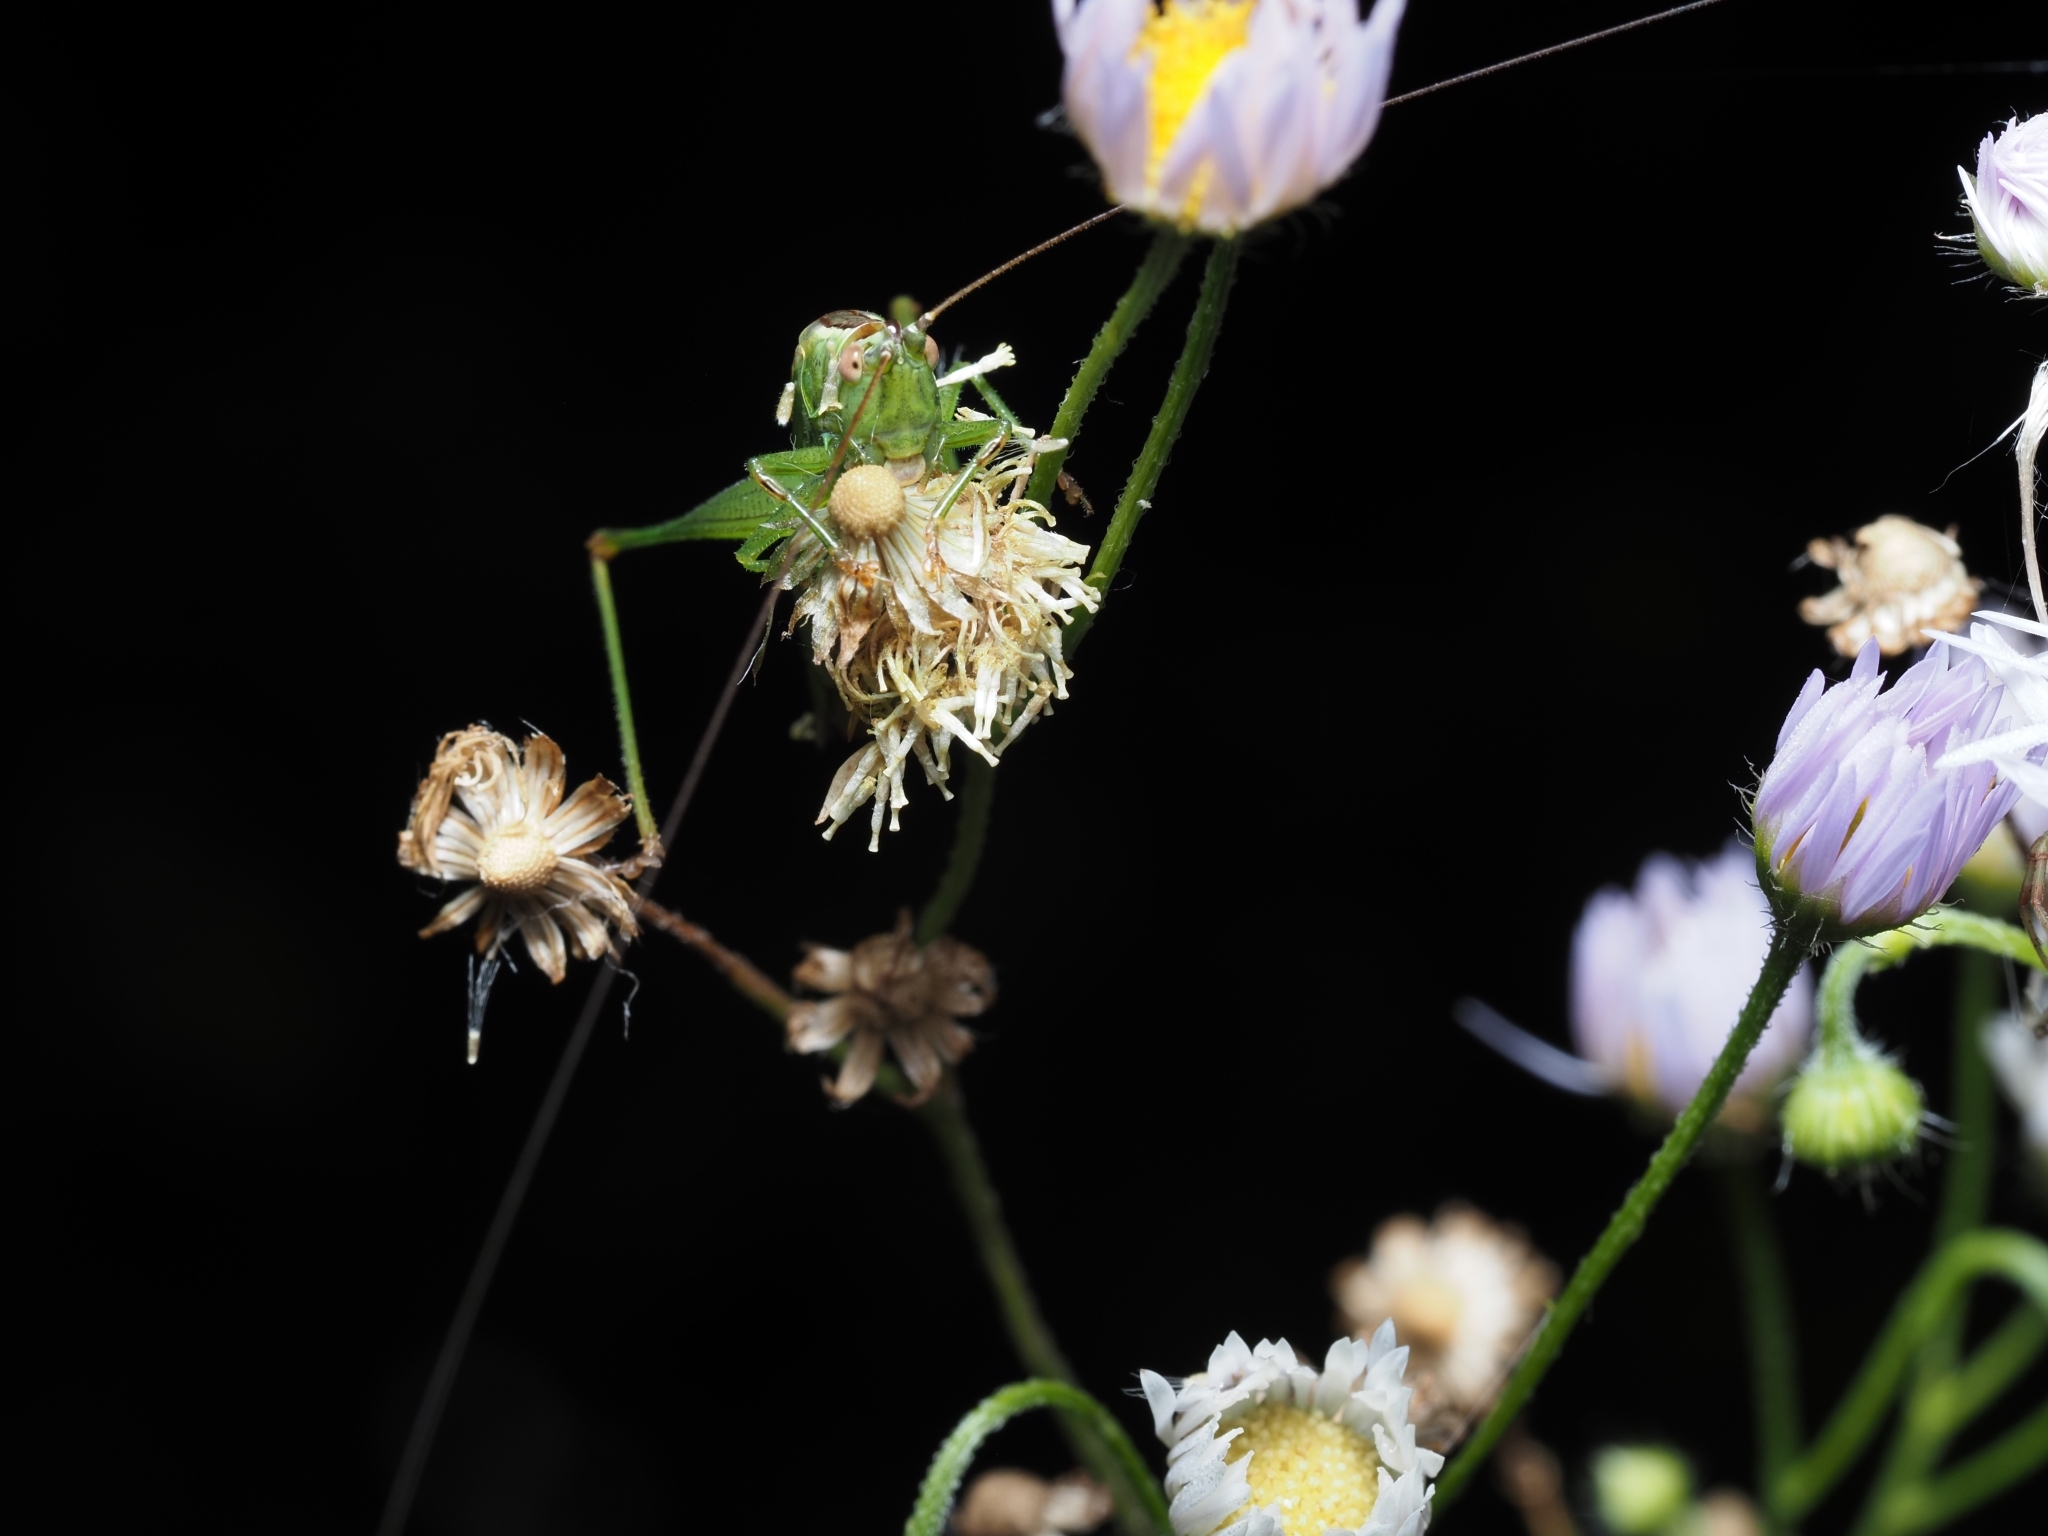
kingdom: Animalia
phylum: Arthropoda
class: Insecta
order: Orthoptera
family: Tettigoniidae
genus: Conocephalus
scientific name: Conocephalus fuscus
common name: Long-winged conehead
